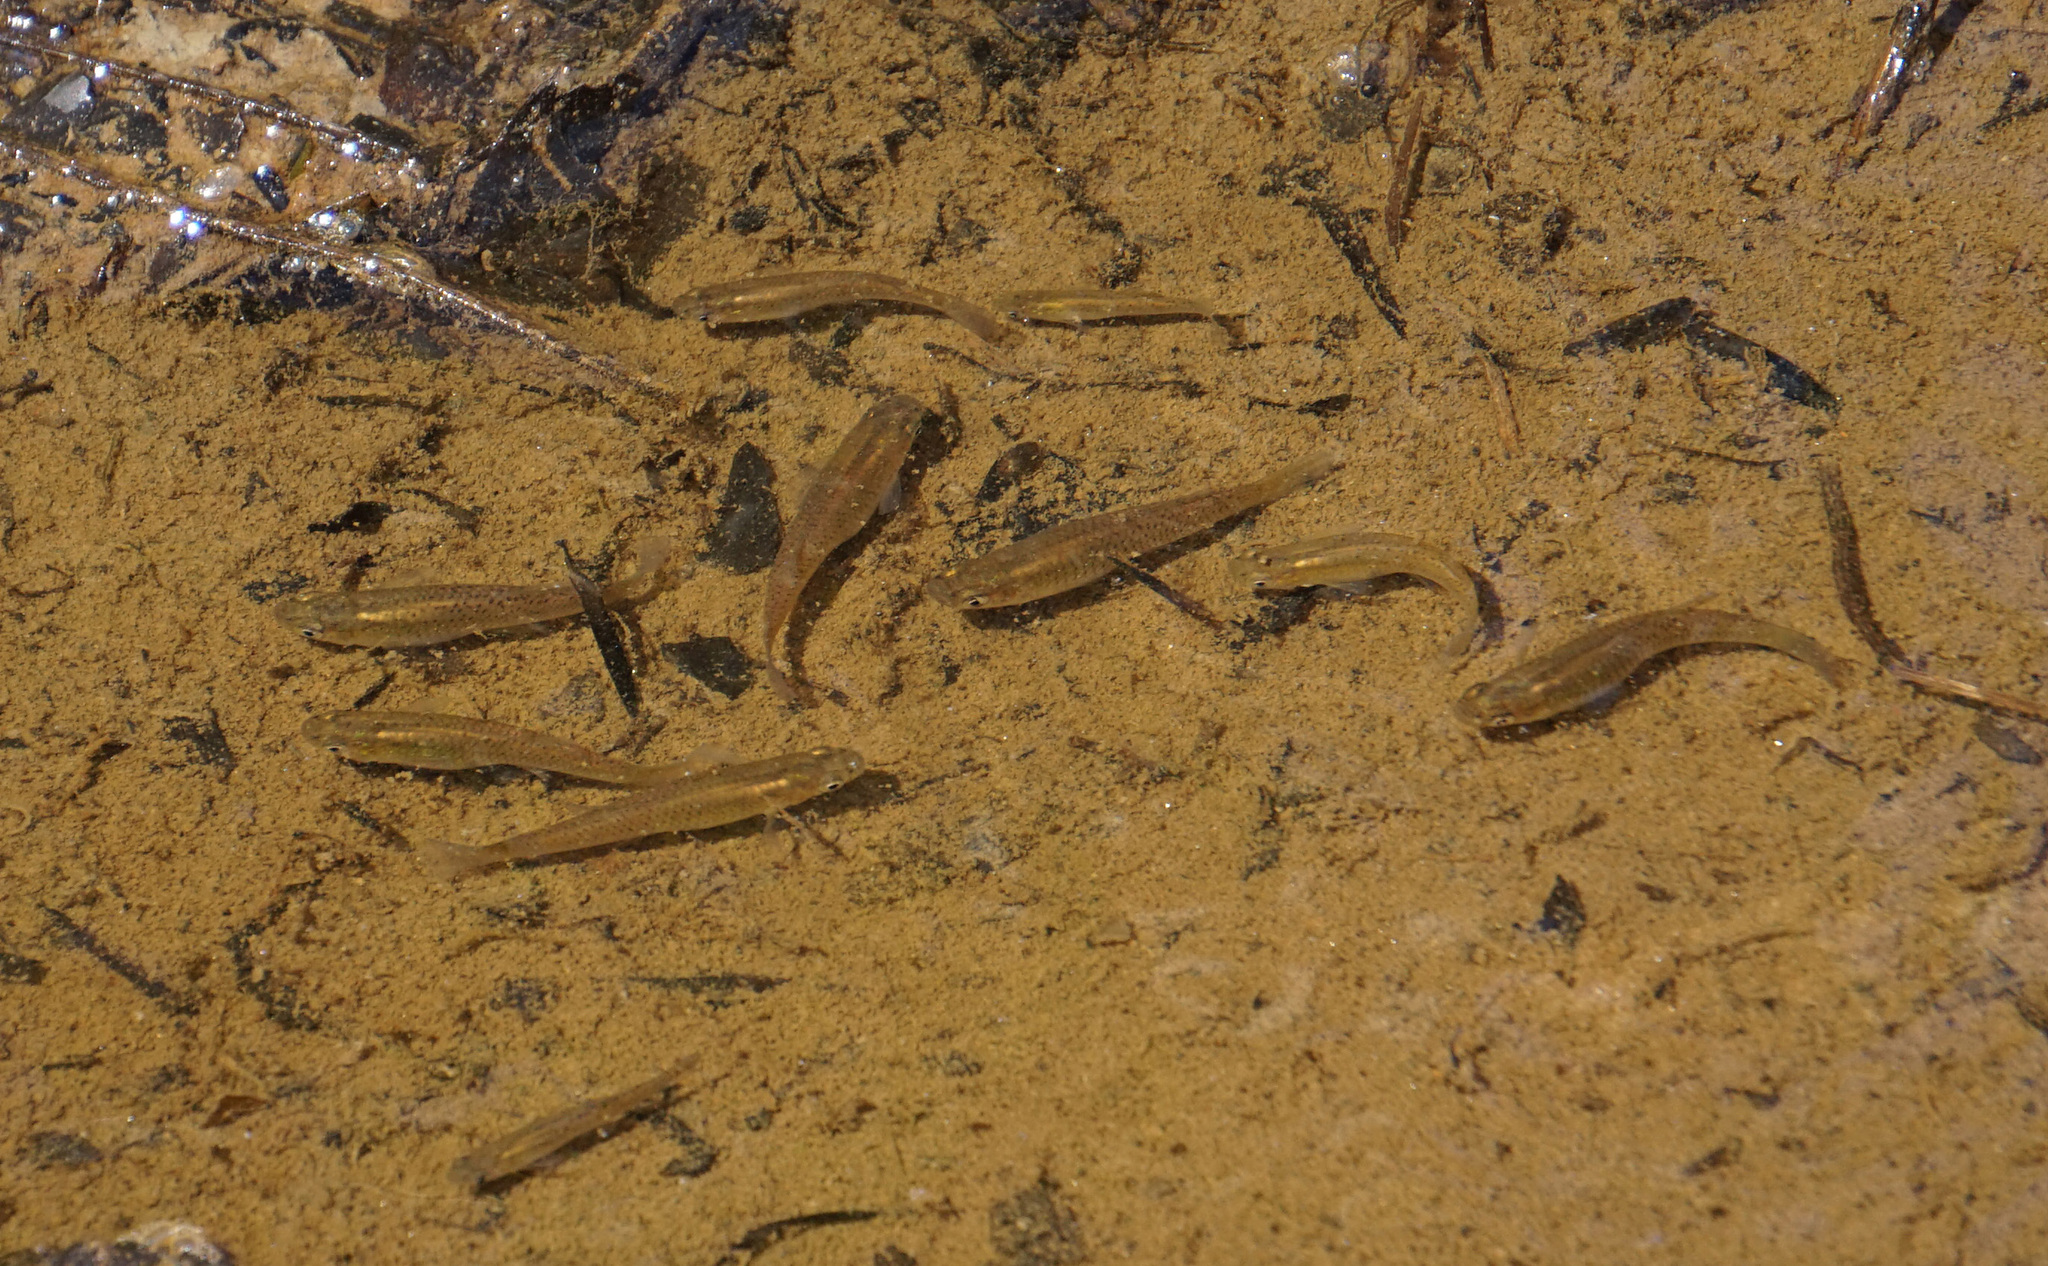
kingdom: Animalia
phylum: Chordata
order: Cyprinodontiformes
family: Poeciliidae
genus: Gambusia
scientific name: Gambusia holbrooki
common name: Eastern mosquitofish
